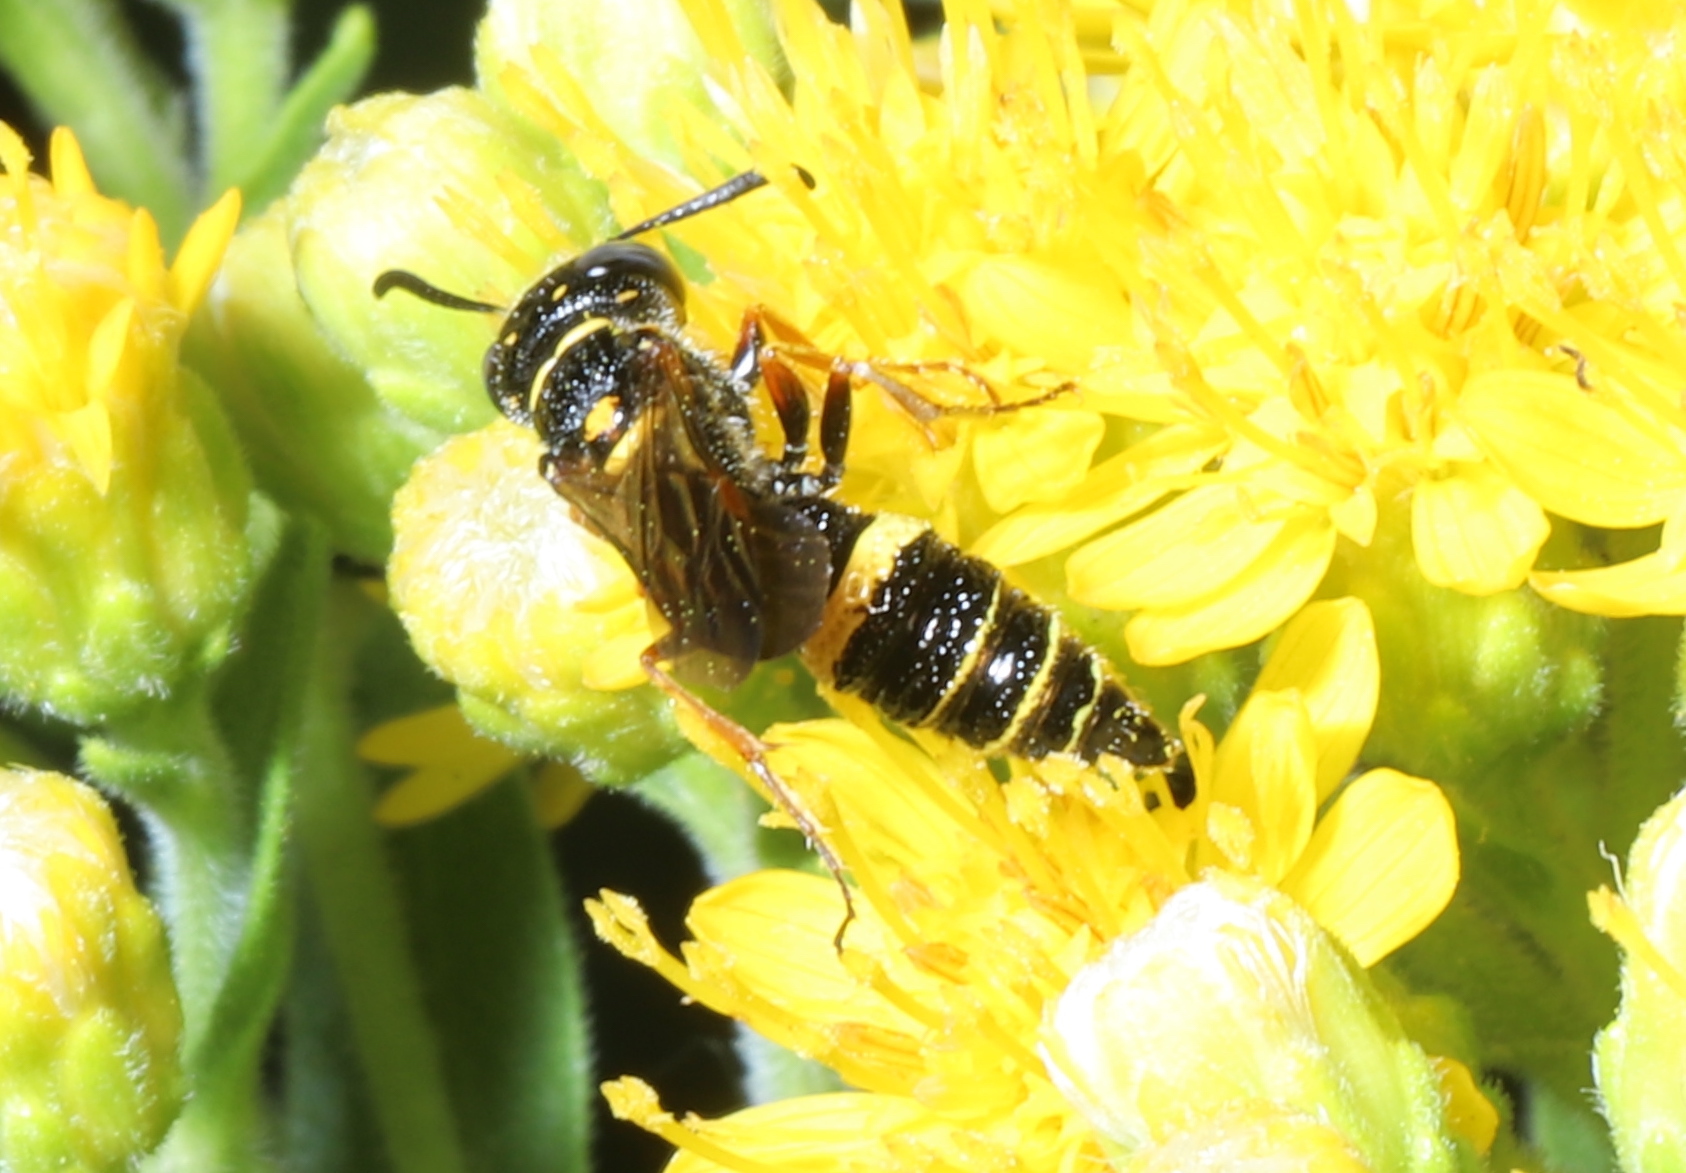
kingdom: Animalia
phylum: Arthropoda
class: Insecta
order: Hymenoptera
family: Crabronidae
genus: Philanthus
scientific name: Philanthus gibbosus
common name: Humped beewolf
